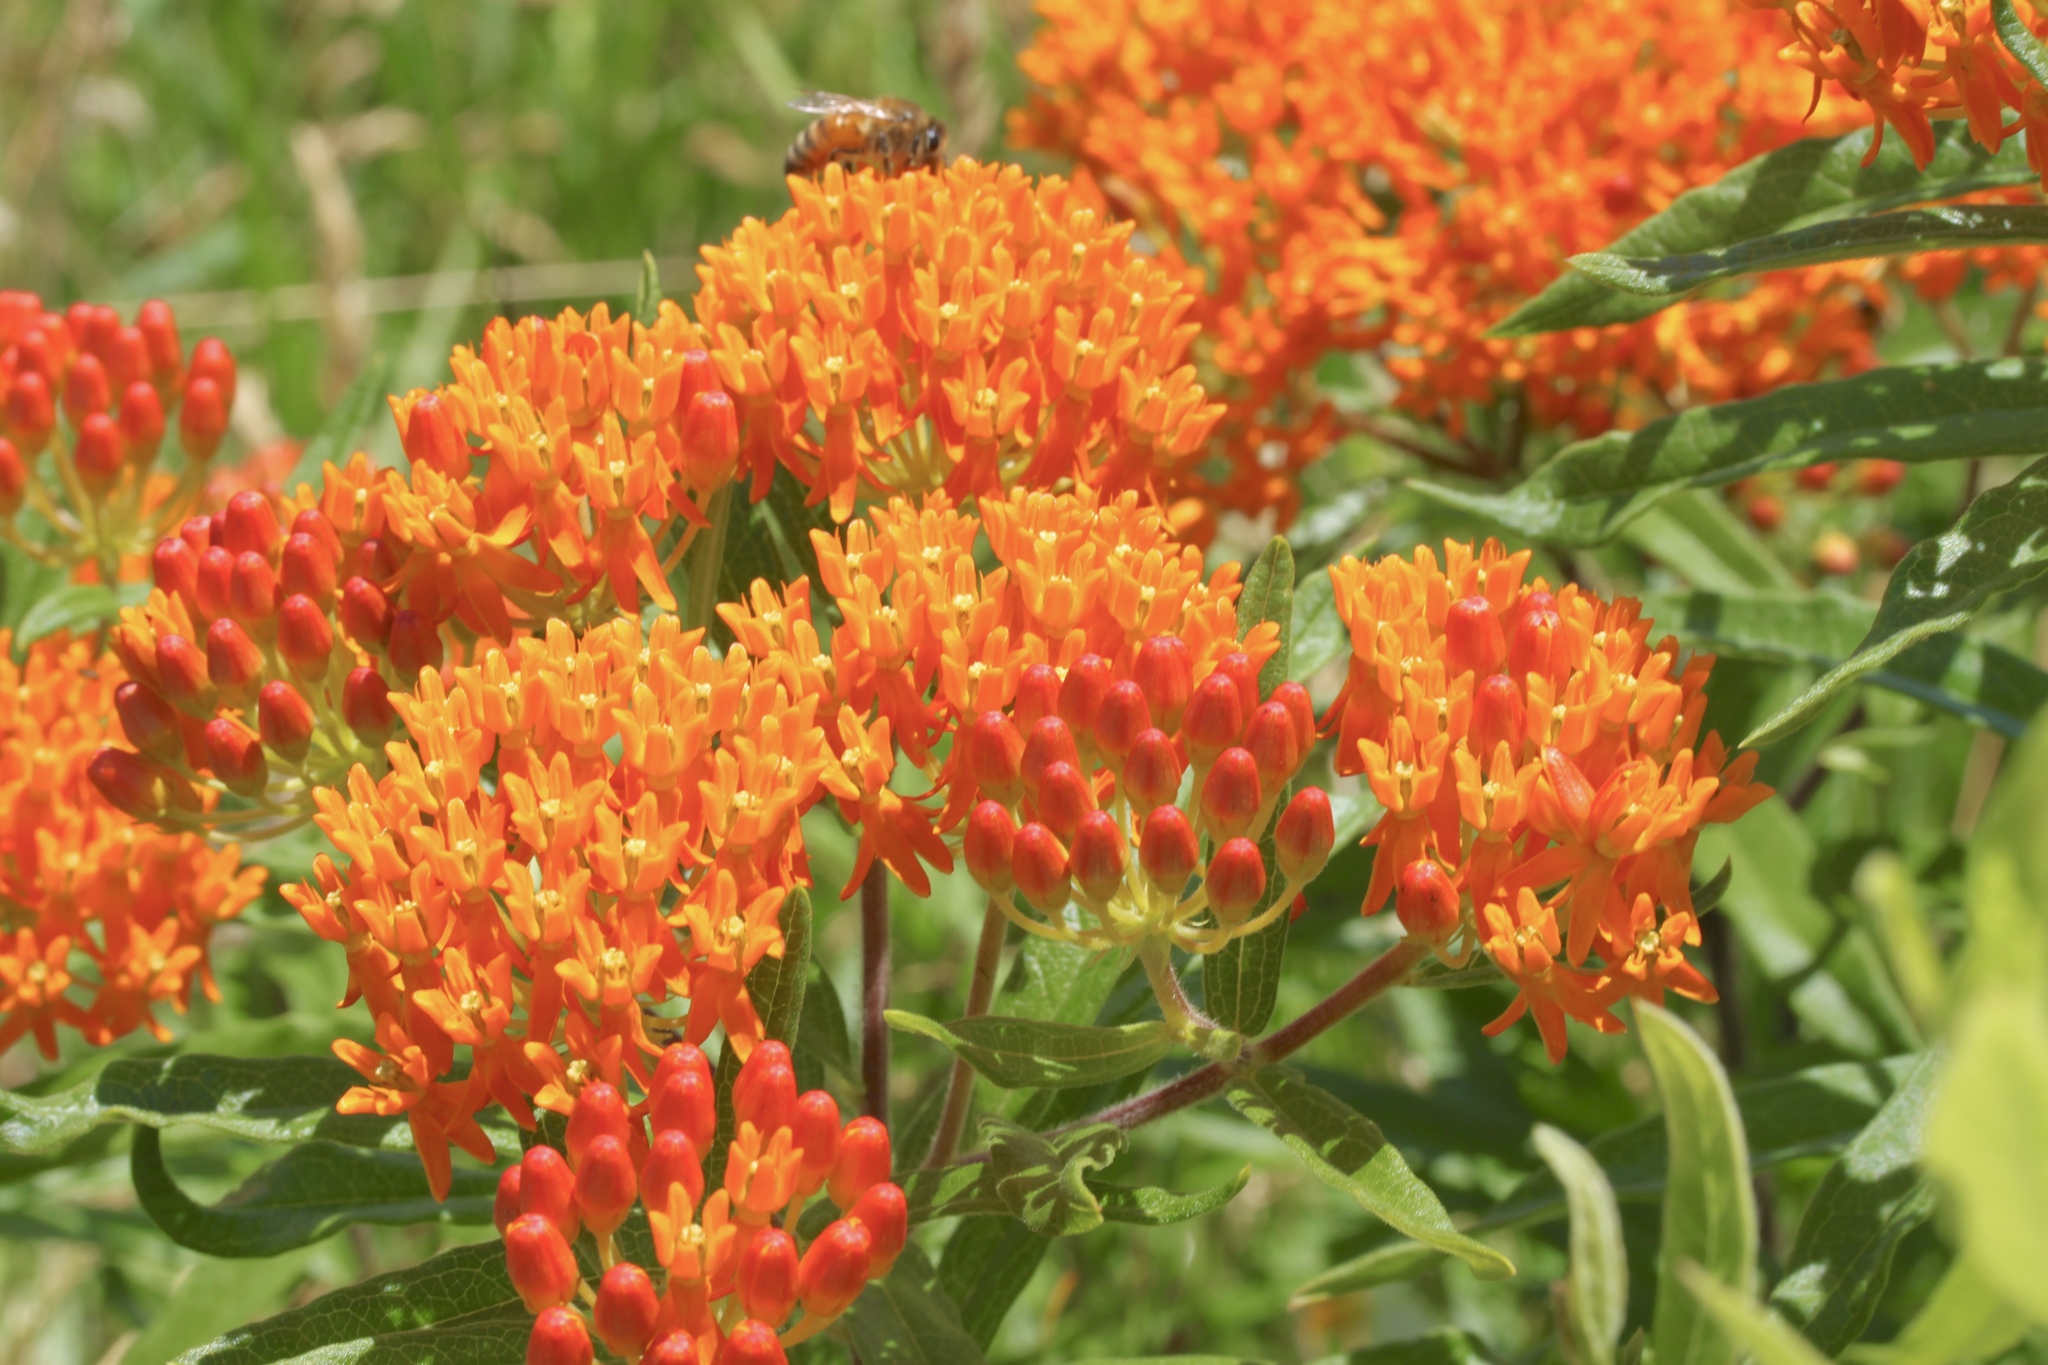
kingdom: Plantae
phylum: Tracheophyta
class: Magnoliopsida
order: Gentianales
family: Apocynaceae
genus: Asclepias
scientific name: Asclepias tuberosa
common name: Butterfly milkweed
